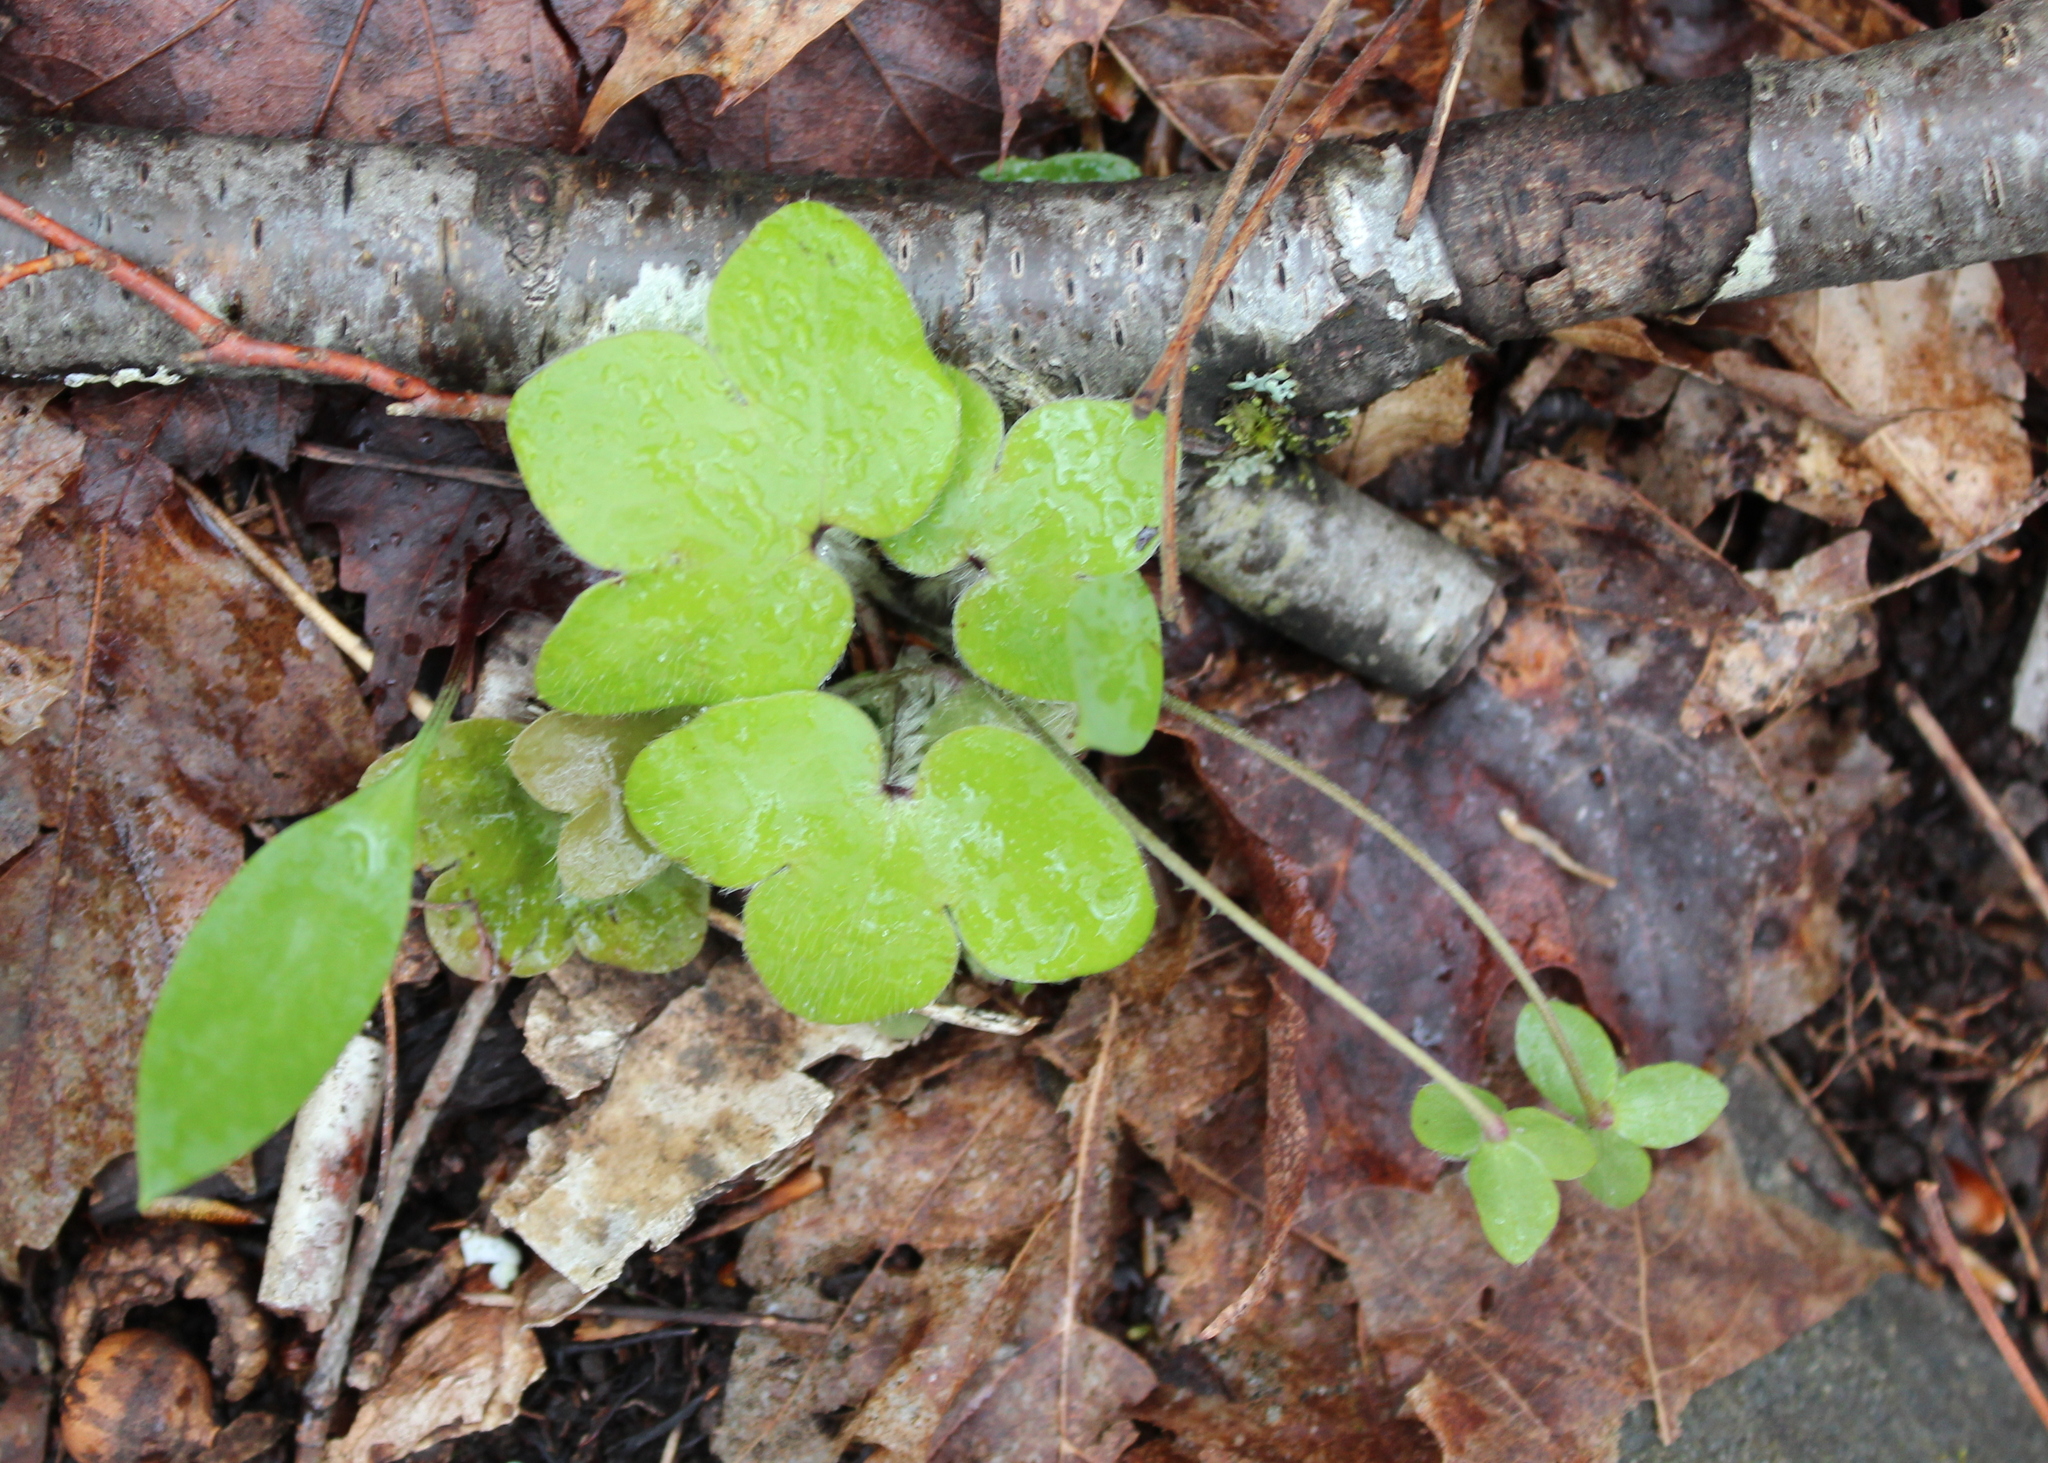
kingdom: Plantae
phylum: Tracheophyta
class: Magnoliopsida
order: Ranunculales
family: Ranunculaceae
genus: Hepatica
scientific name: Hepatica americana
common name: American hepatica
